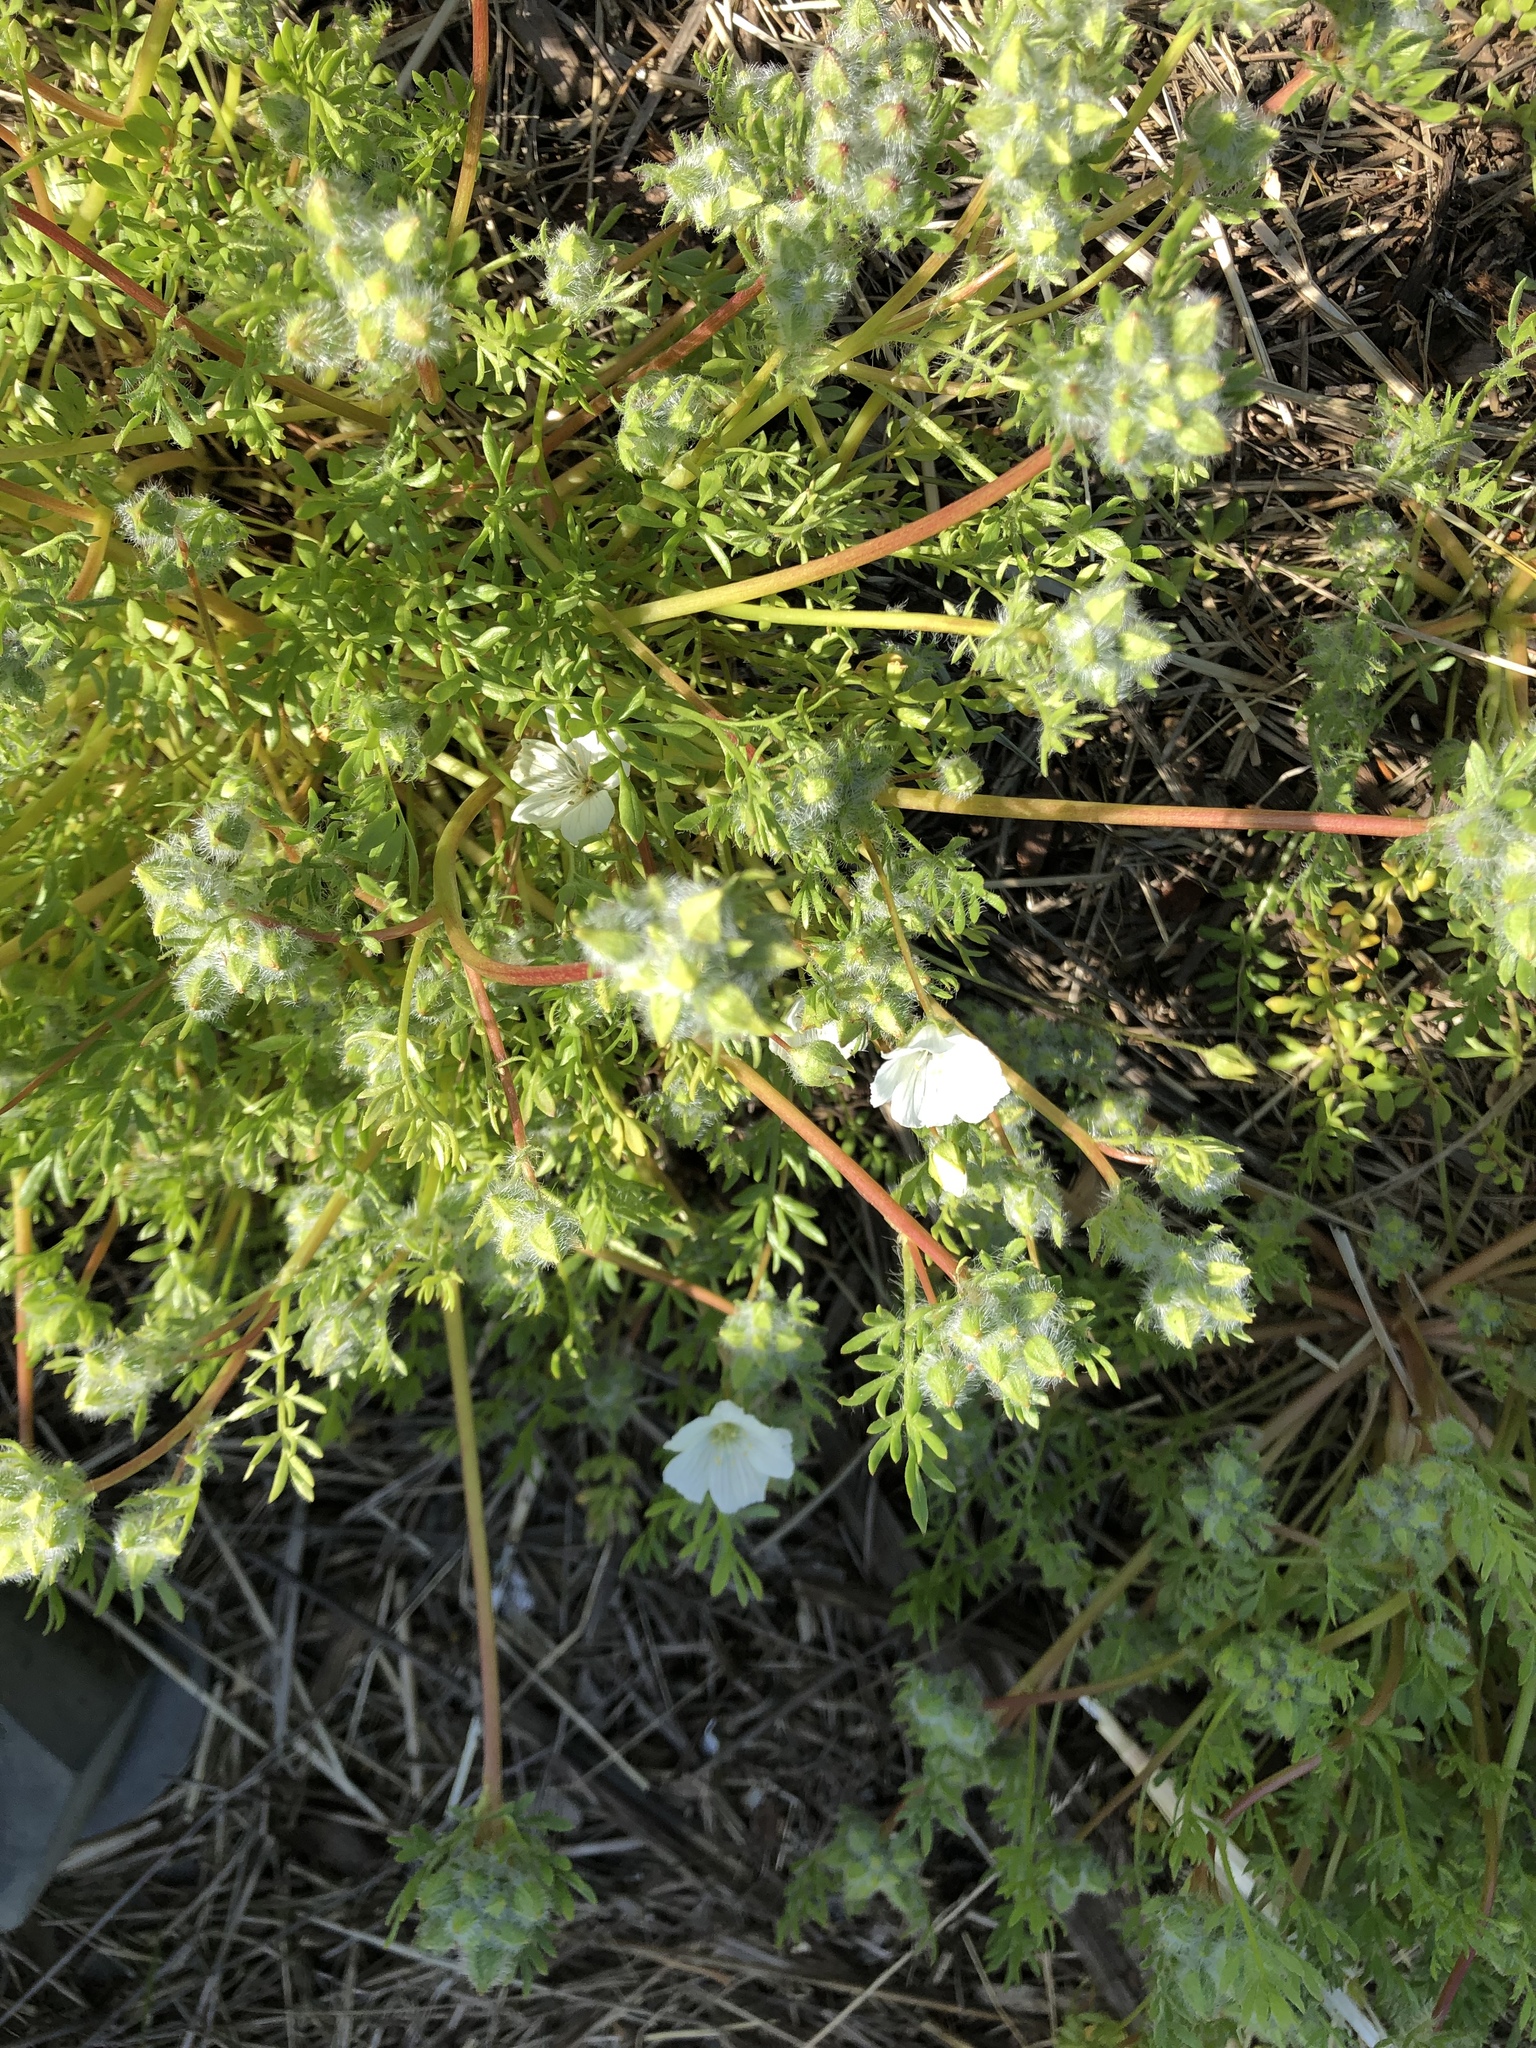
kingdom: Plantae
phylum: Tracheophyta
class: Magnoliopsida
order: Brassicales
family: Limnanthaceae
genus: Limnanthes
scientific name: Limnanthes alba
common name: Meadowfoam
